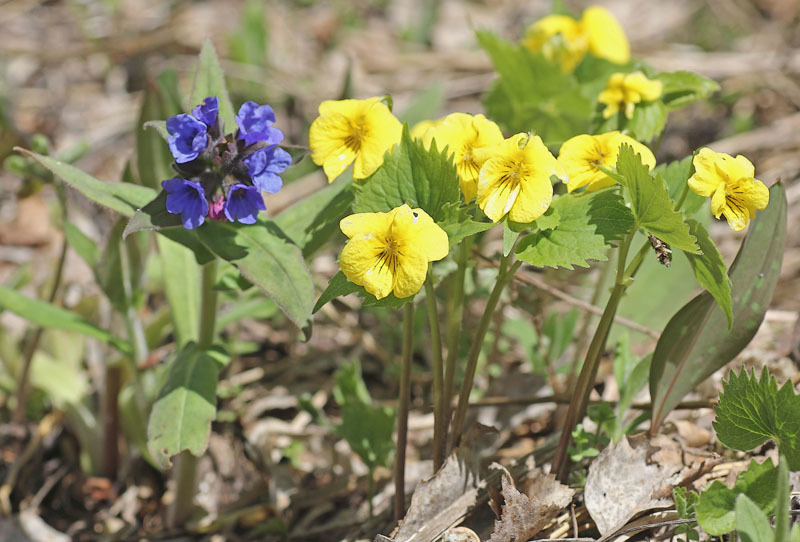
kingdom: Plantae
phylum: Tracheophyta
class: Magnoliopsida
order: Malpighiales
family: Violaceae
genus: Viola
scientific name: Viola uniflora
